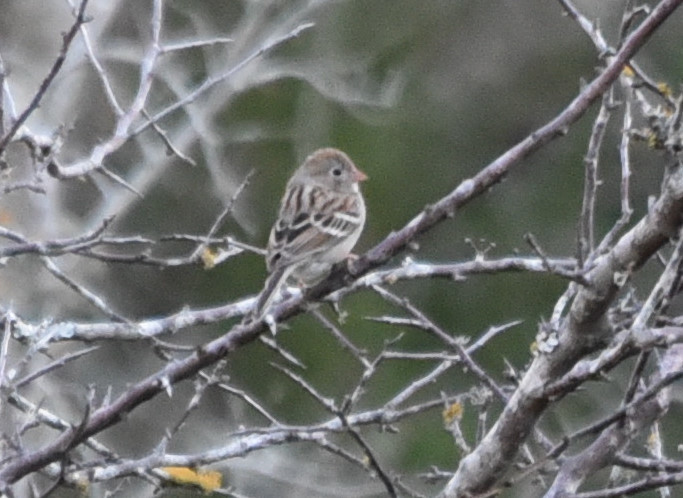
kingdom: Animalia
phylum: Chordata
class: Aves
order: Passeriformes
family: Passerellidae
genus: Spizella
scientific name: Spizella pusilla
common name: Field sparrow
